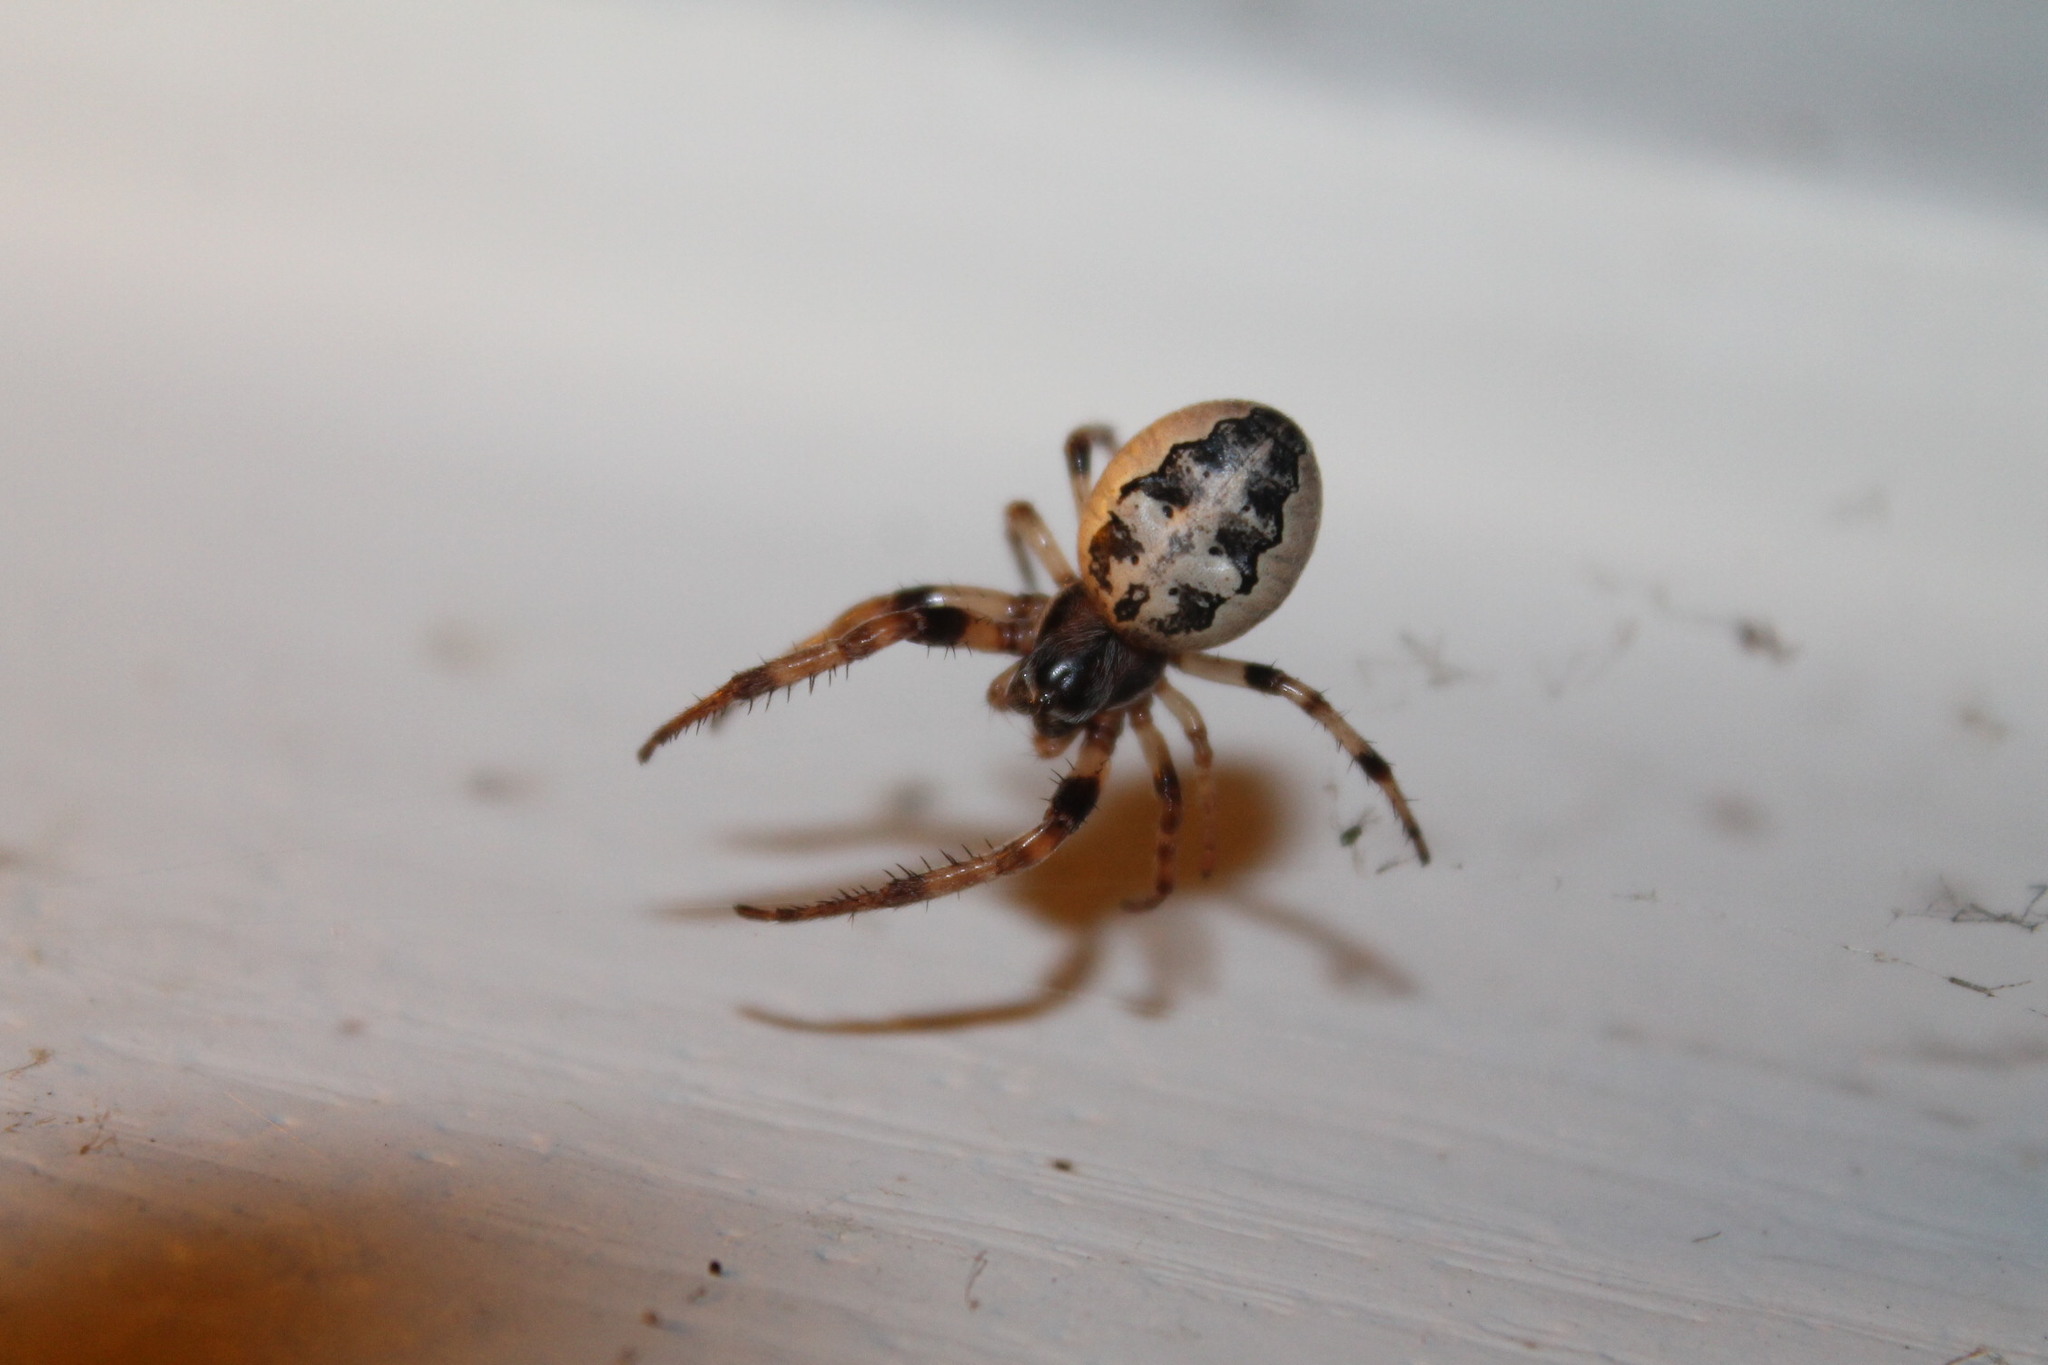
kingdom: Animalia
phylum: Arthropoda
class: Arachnida
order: Araneae
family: Araneidae
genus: Larinioides
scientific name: Larinioides cornutus
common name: Furrow orbweaver
